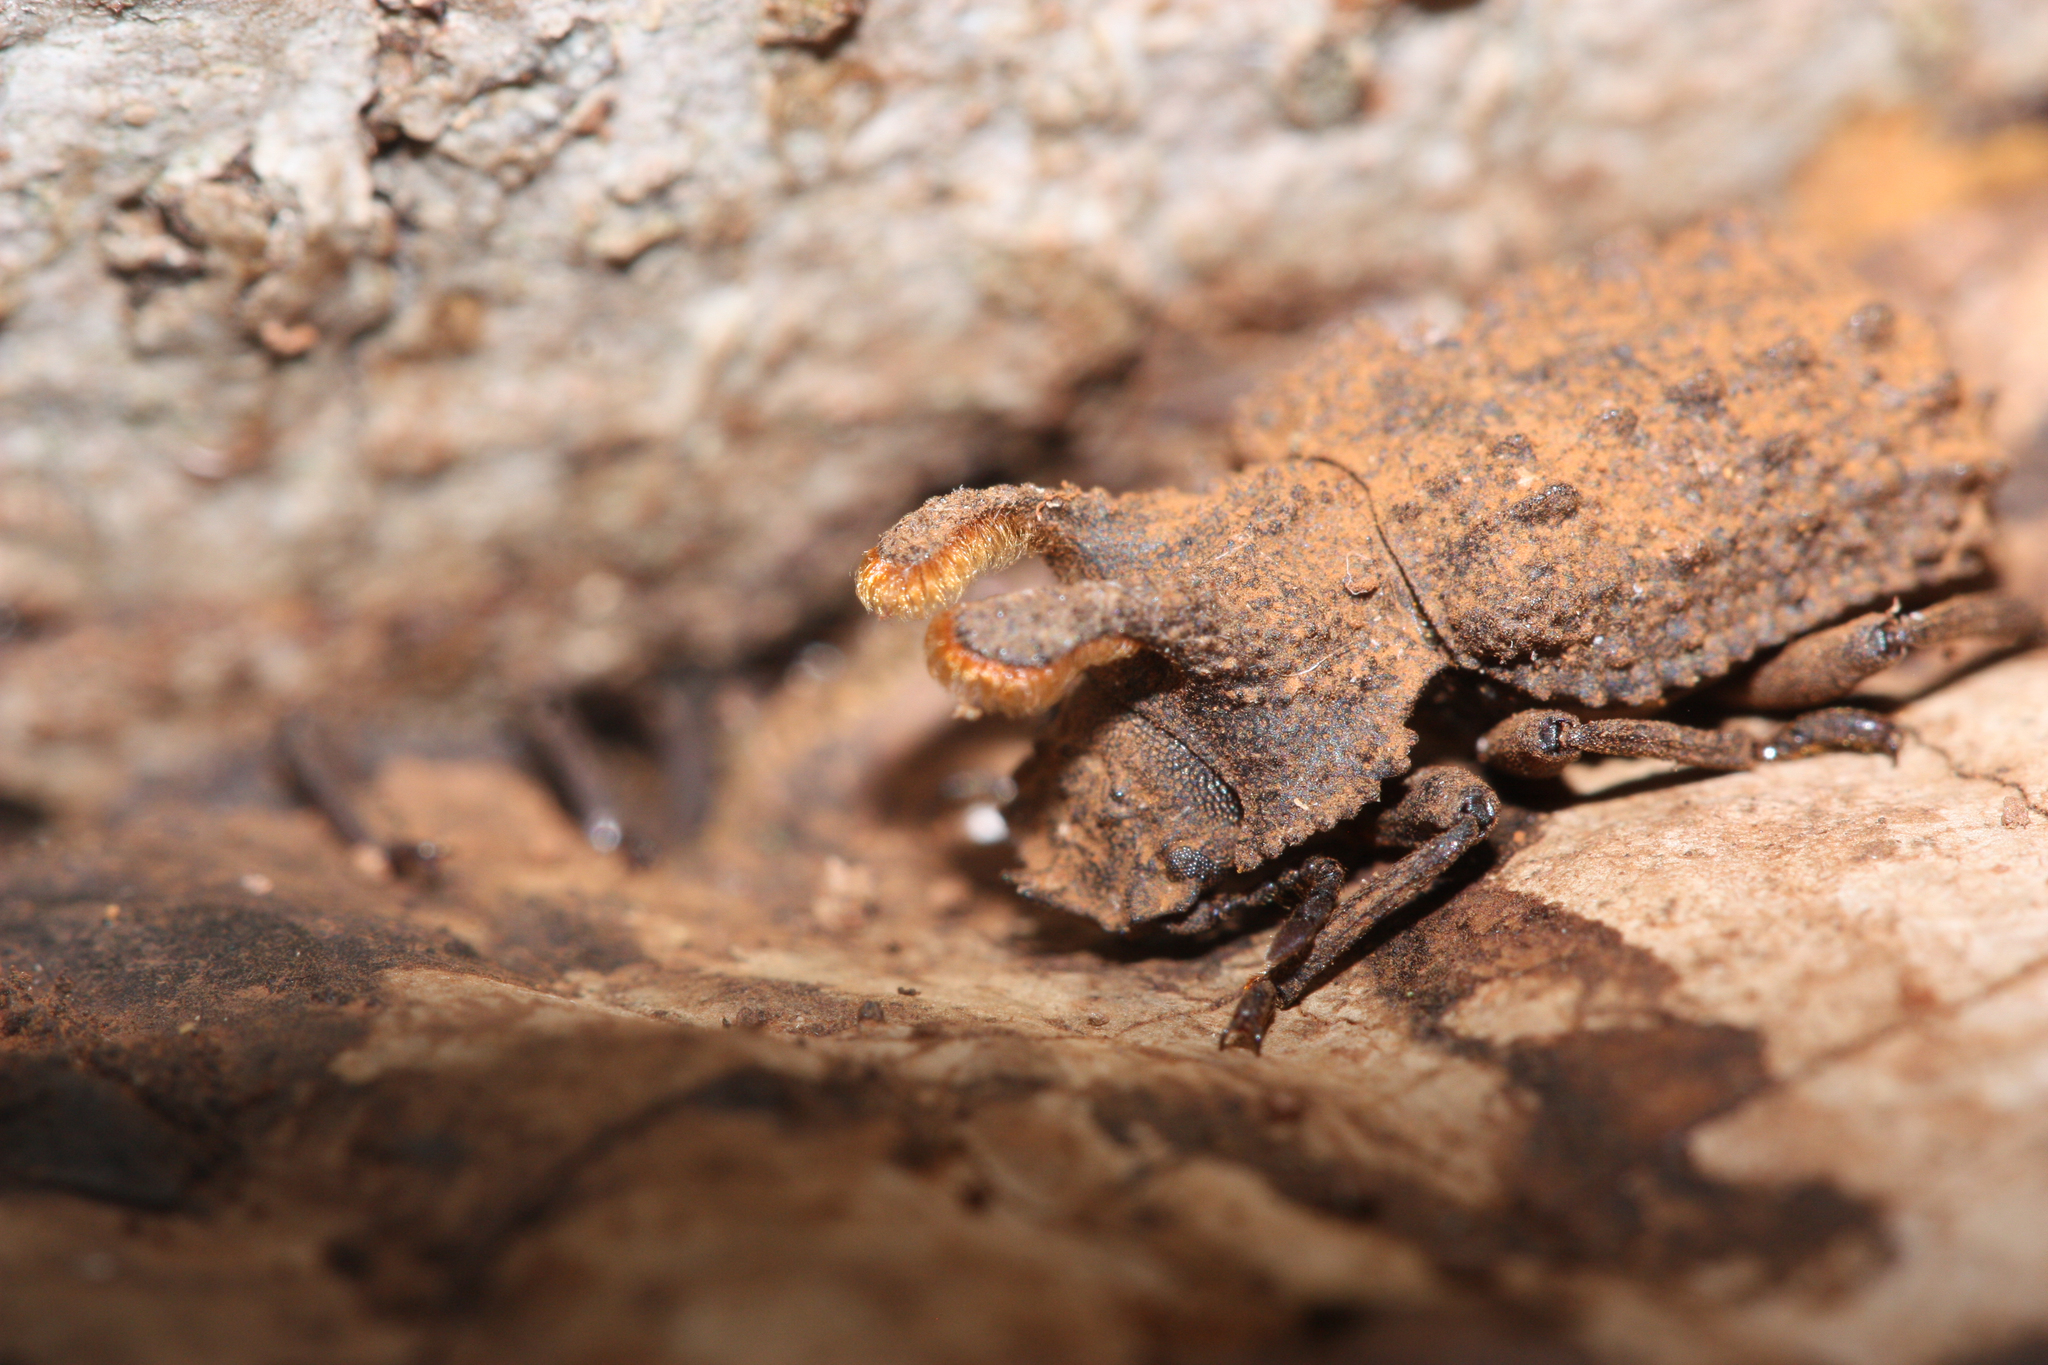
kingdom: Animalia
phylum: Arthropoda
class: Insecta
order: Coleoptera
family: Tenebrionidae
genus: Gnatocerus
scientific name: Gnatocerus cornutus
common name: Broad-horned flour beetle
